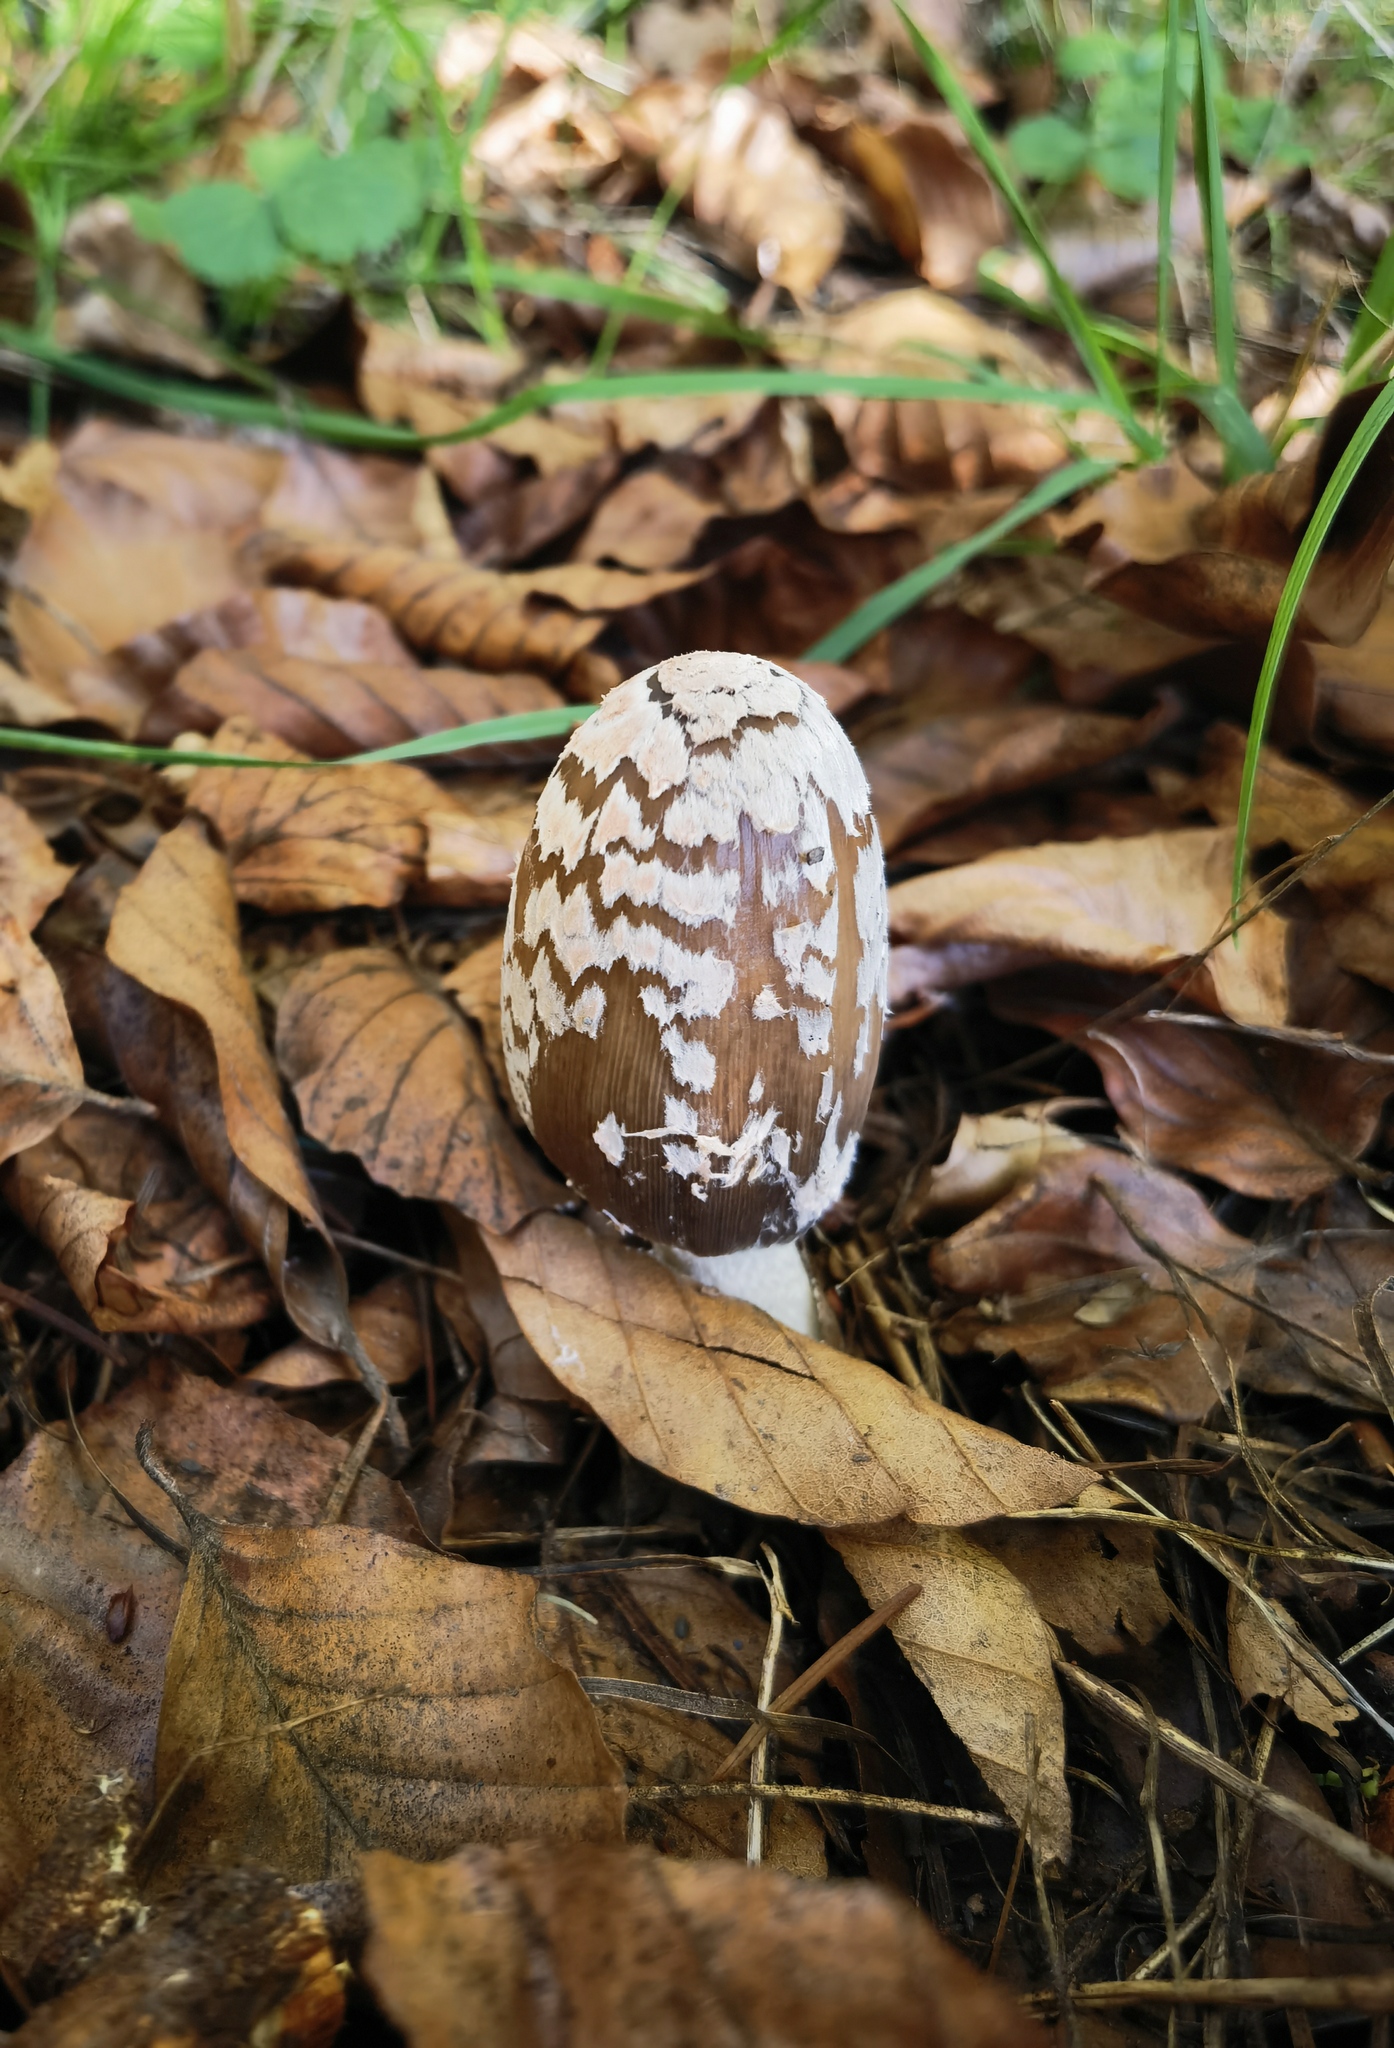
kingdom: Fungi
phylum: Basidiomycota
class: Agaricomycetes
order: Agaricales
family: Psathyrellaceae
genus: Coprinopsis
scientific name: Coprinopsis picacea
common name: Magpie inkcap
